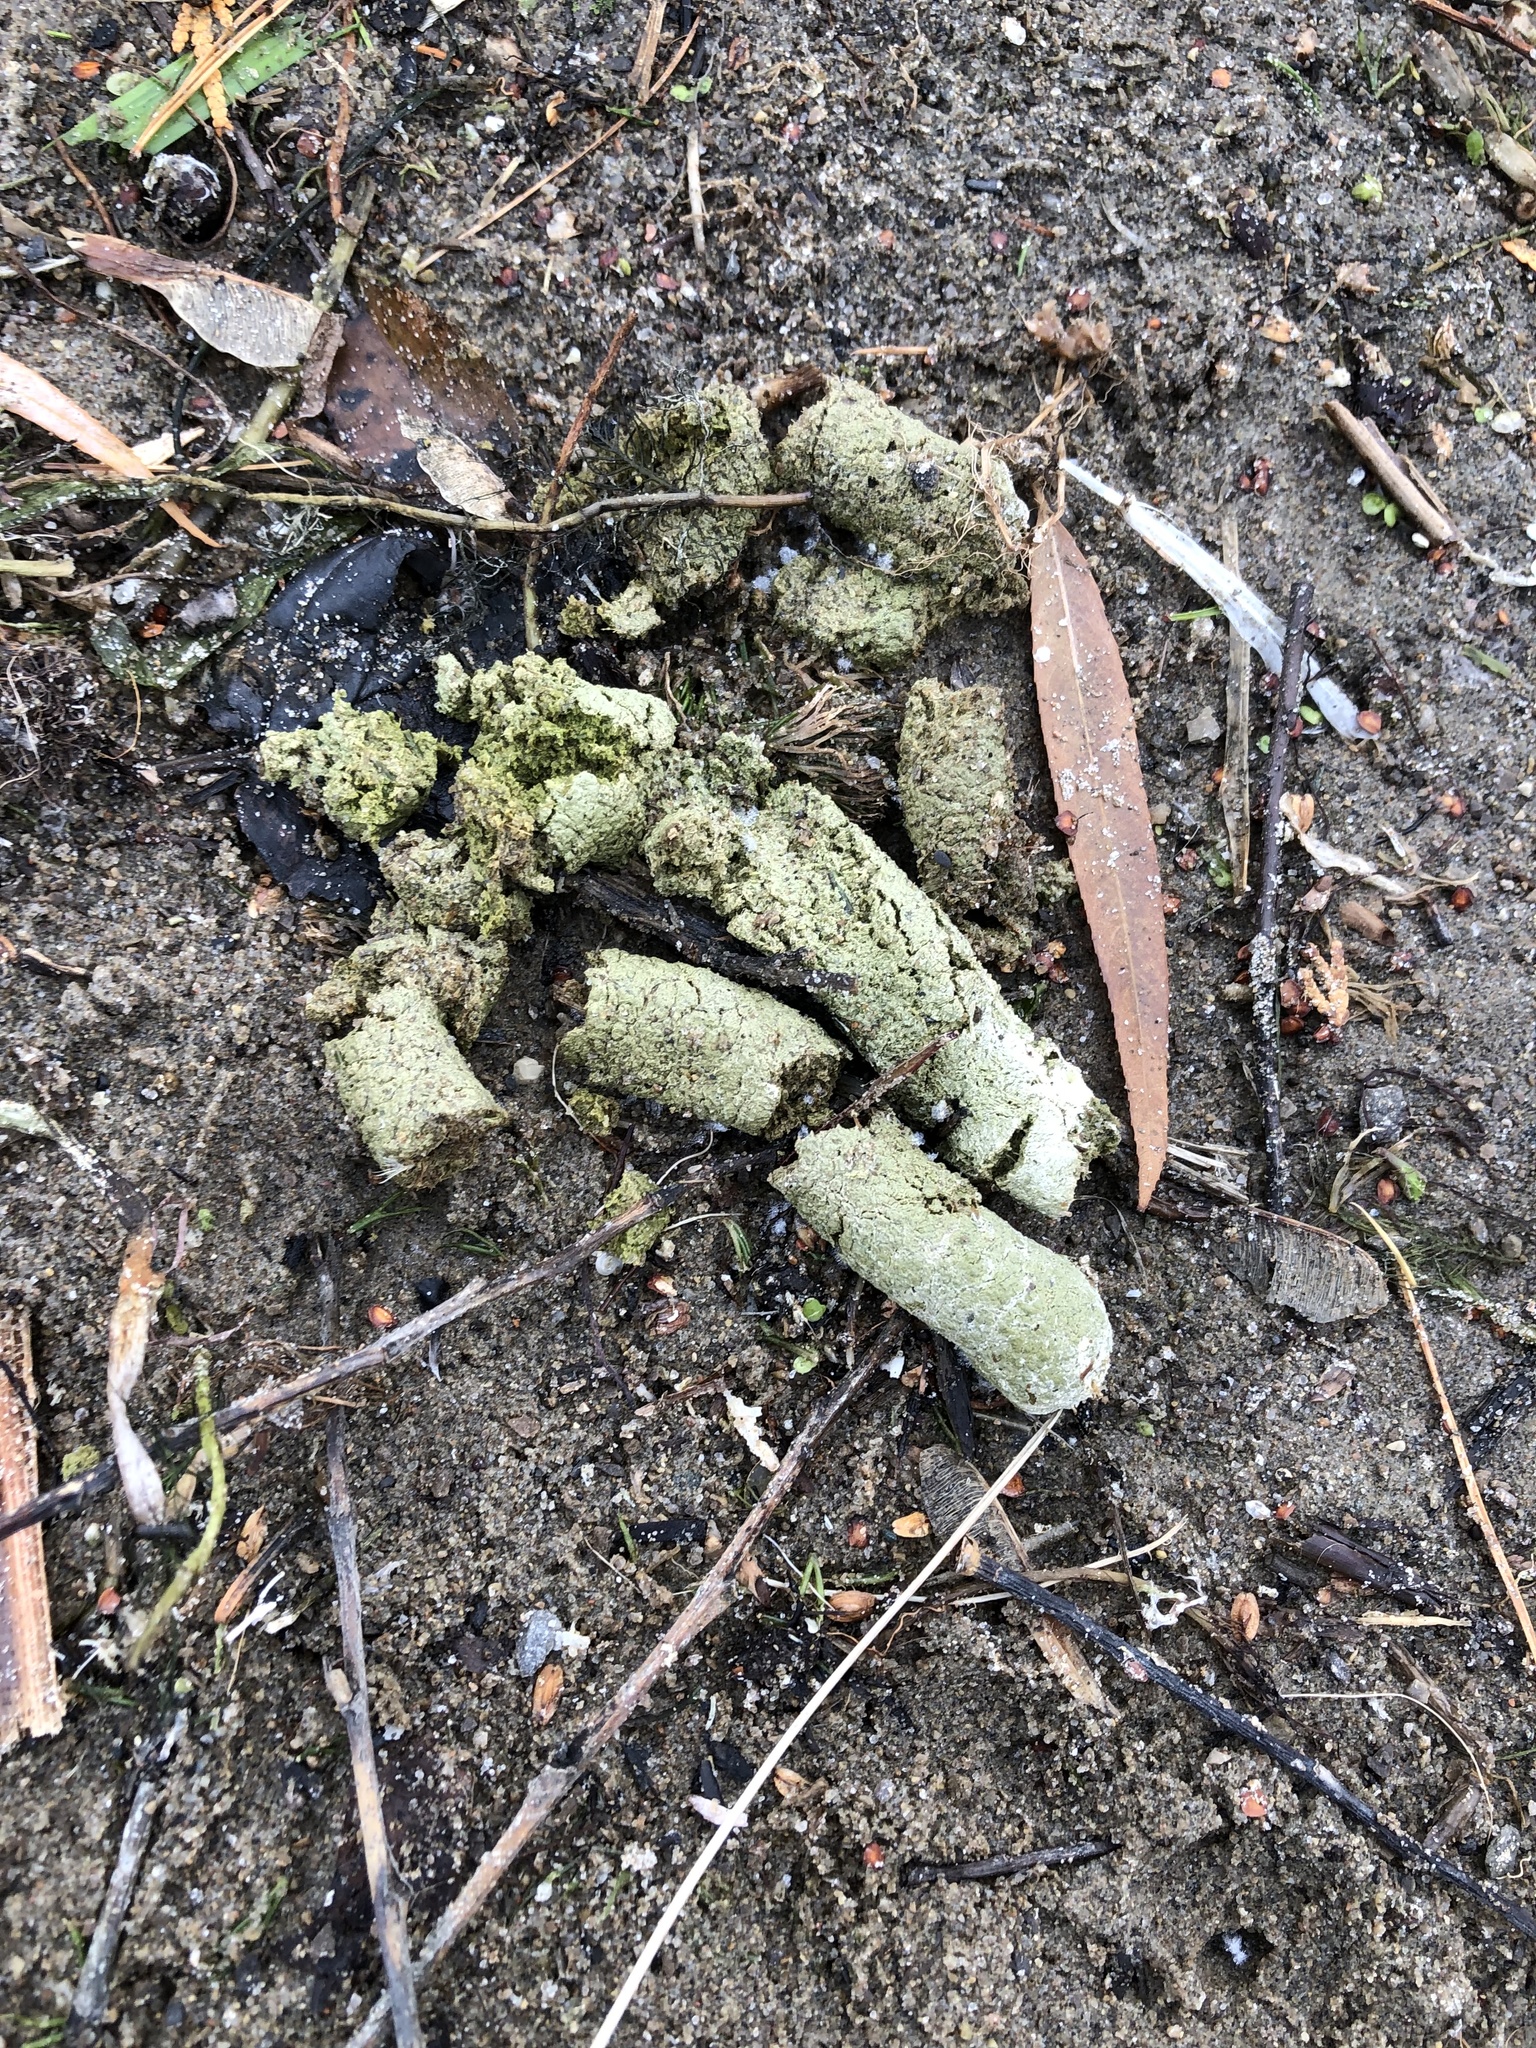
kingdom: Animalia
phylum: Chordata
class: Aves
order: Anseriformes
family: Anatidae
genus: Branta
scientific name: Branta canadensis
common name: Canada goose
